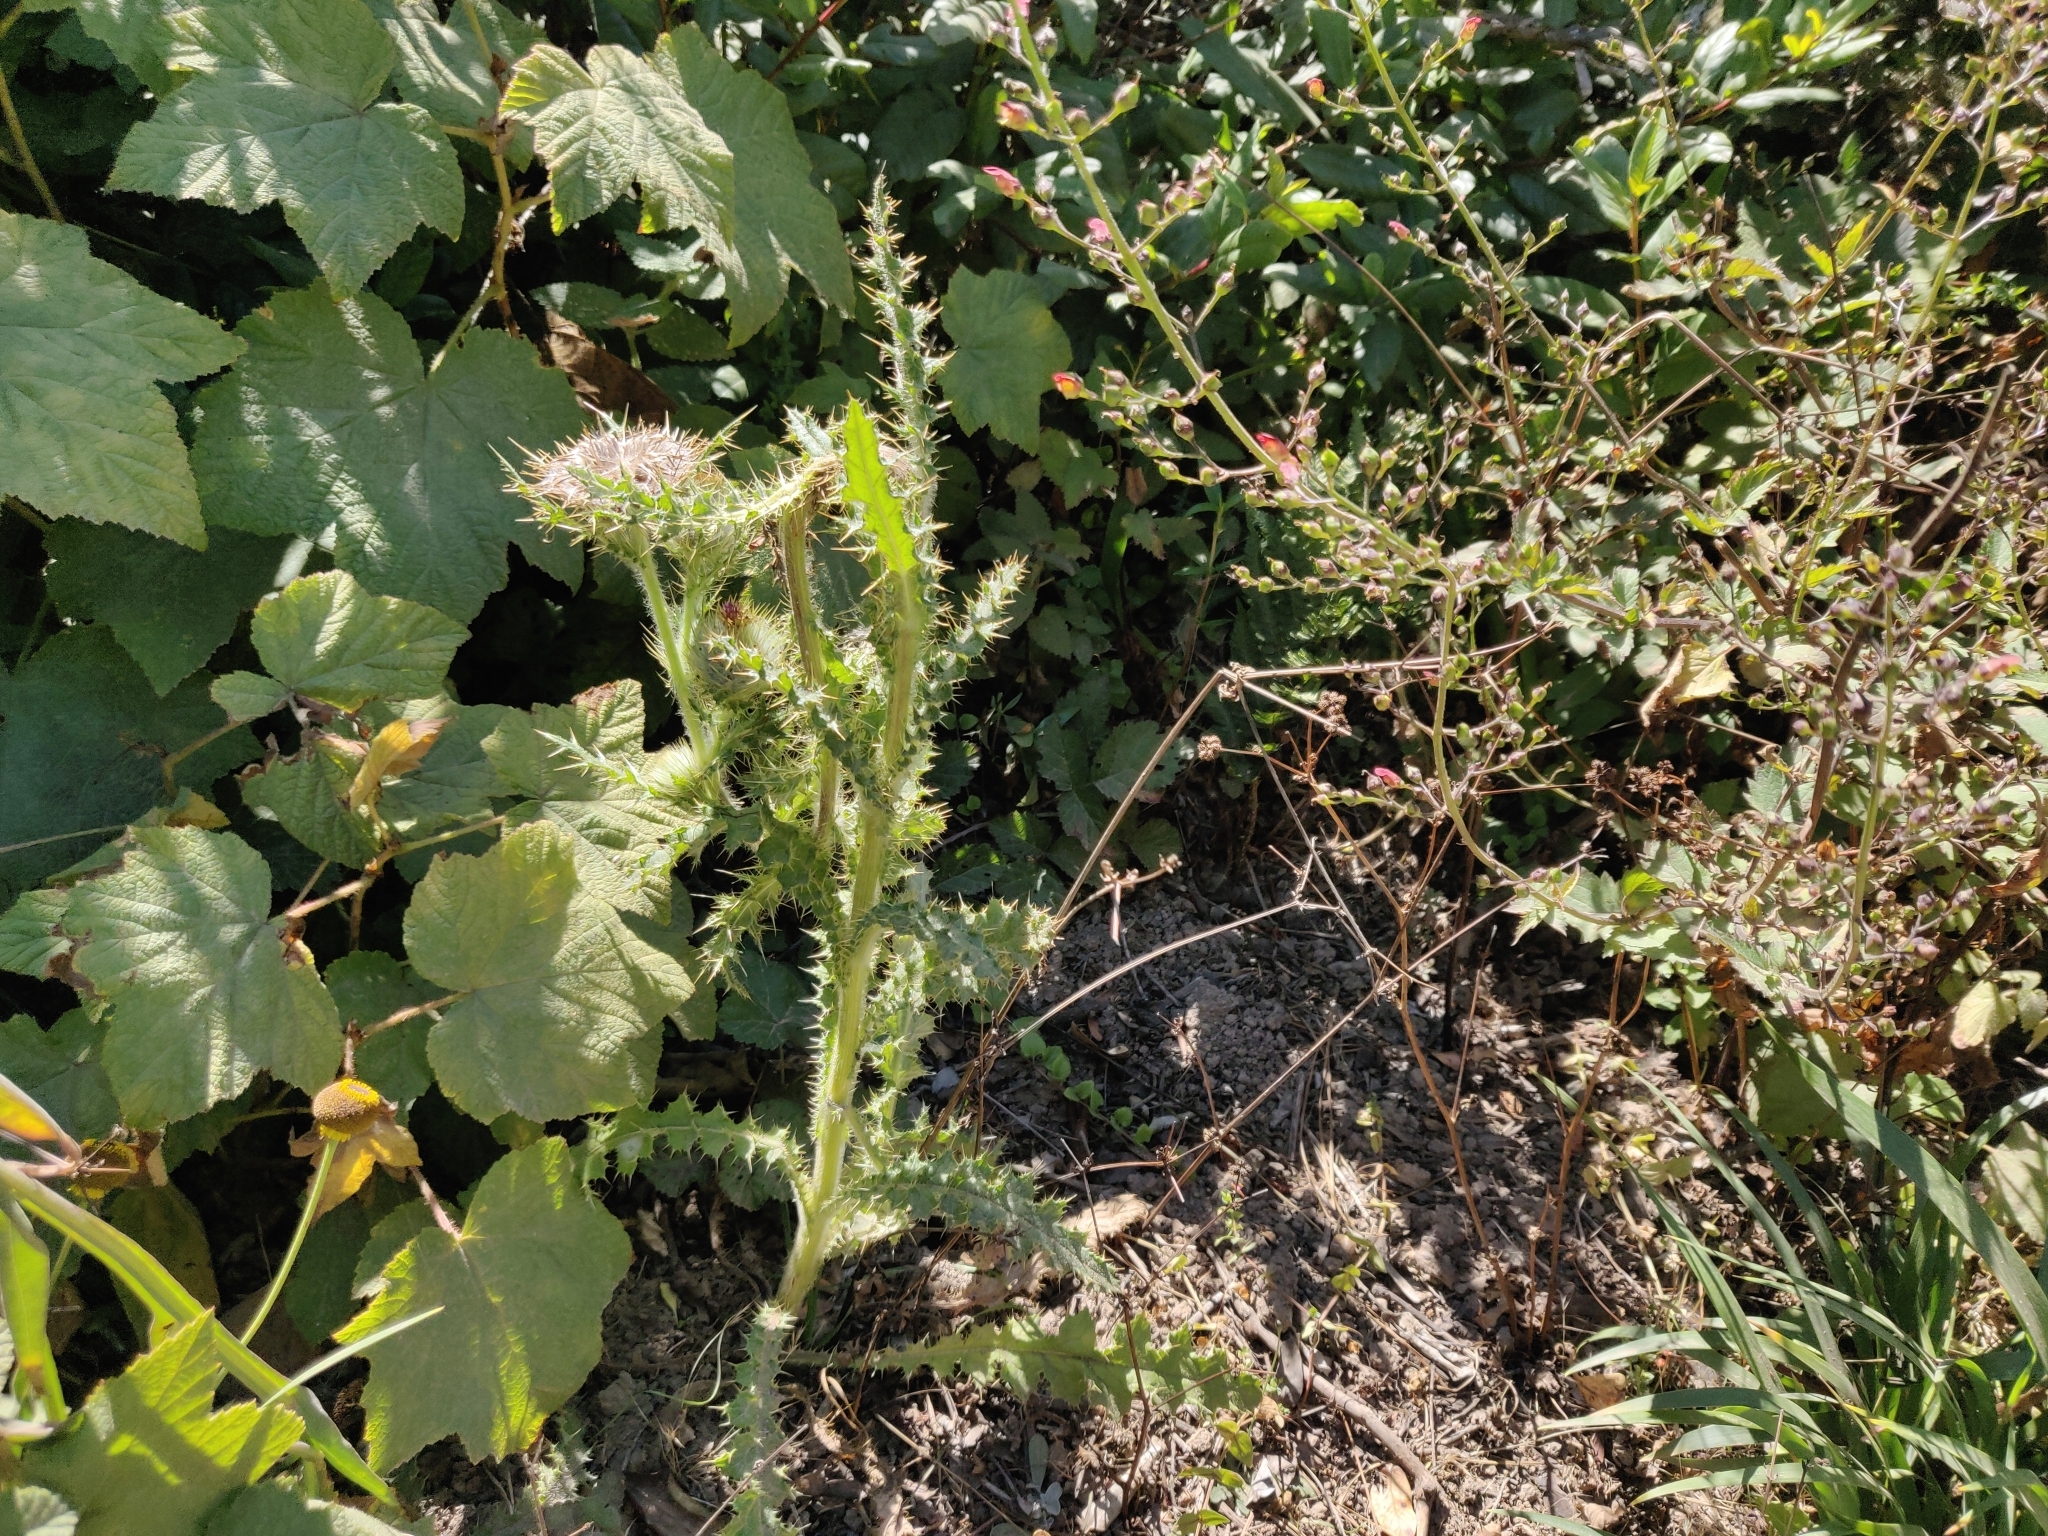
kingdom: Plantae
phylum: Tracheophyta
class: Magnoliopsida
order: Asterales
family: Asteraceae
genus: Cirsium
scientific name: Cirsium brevistylum
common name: Indian thistle
